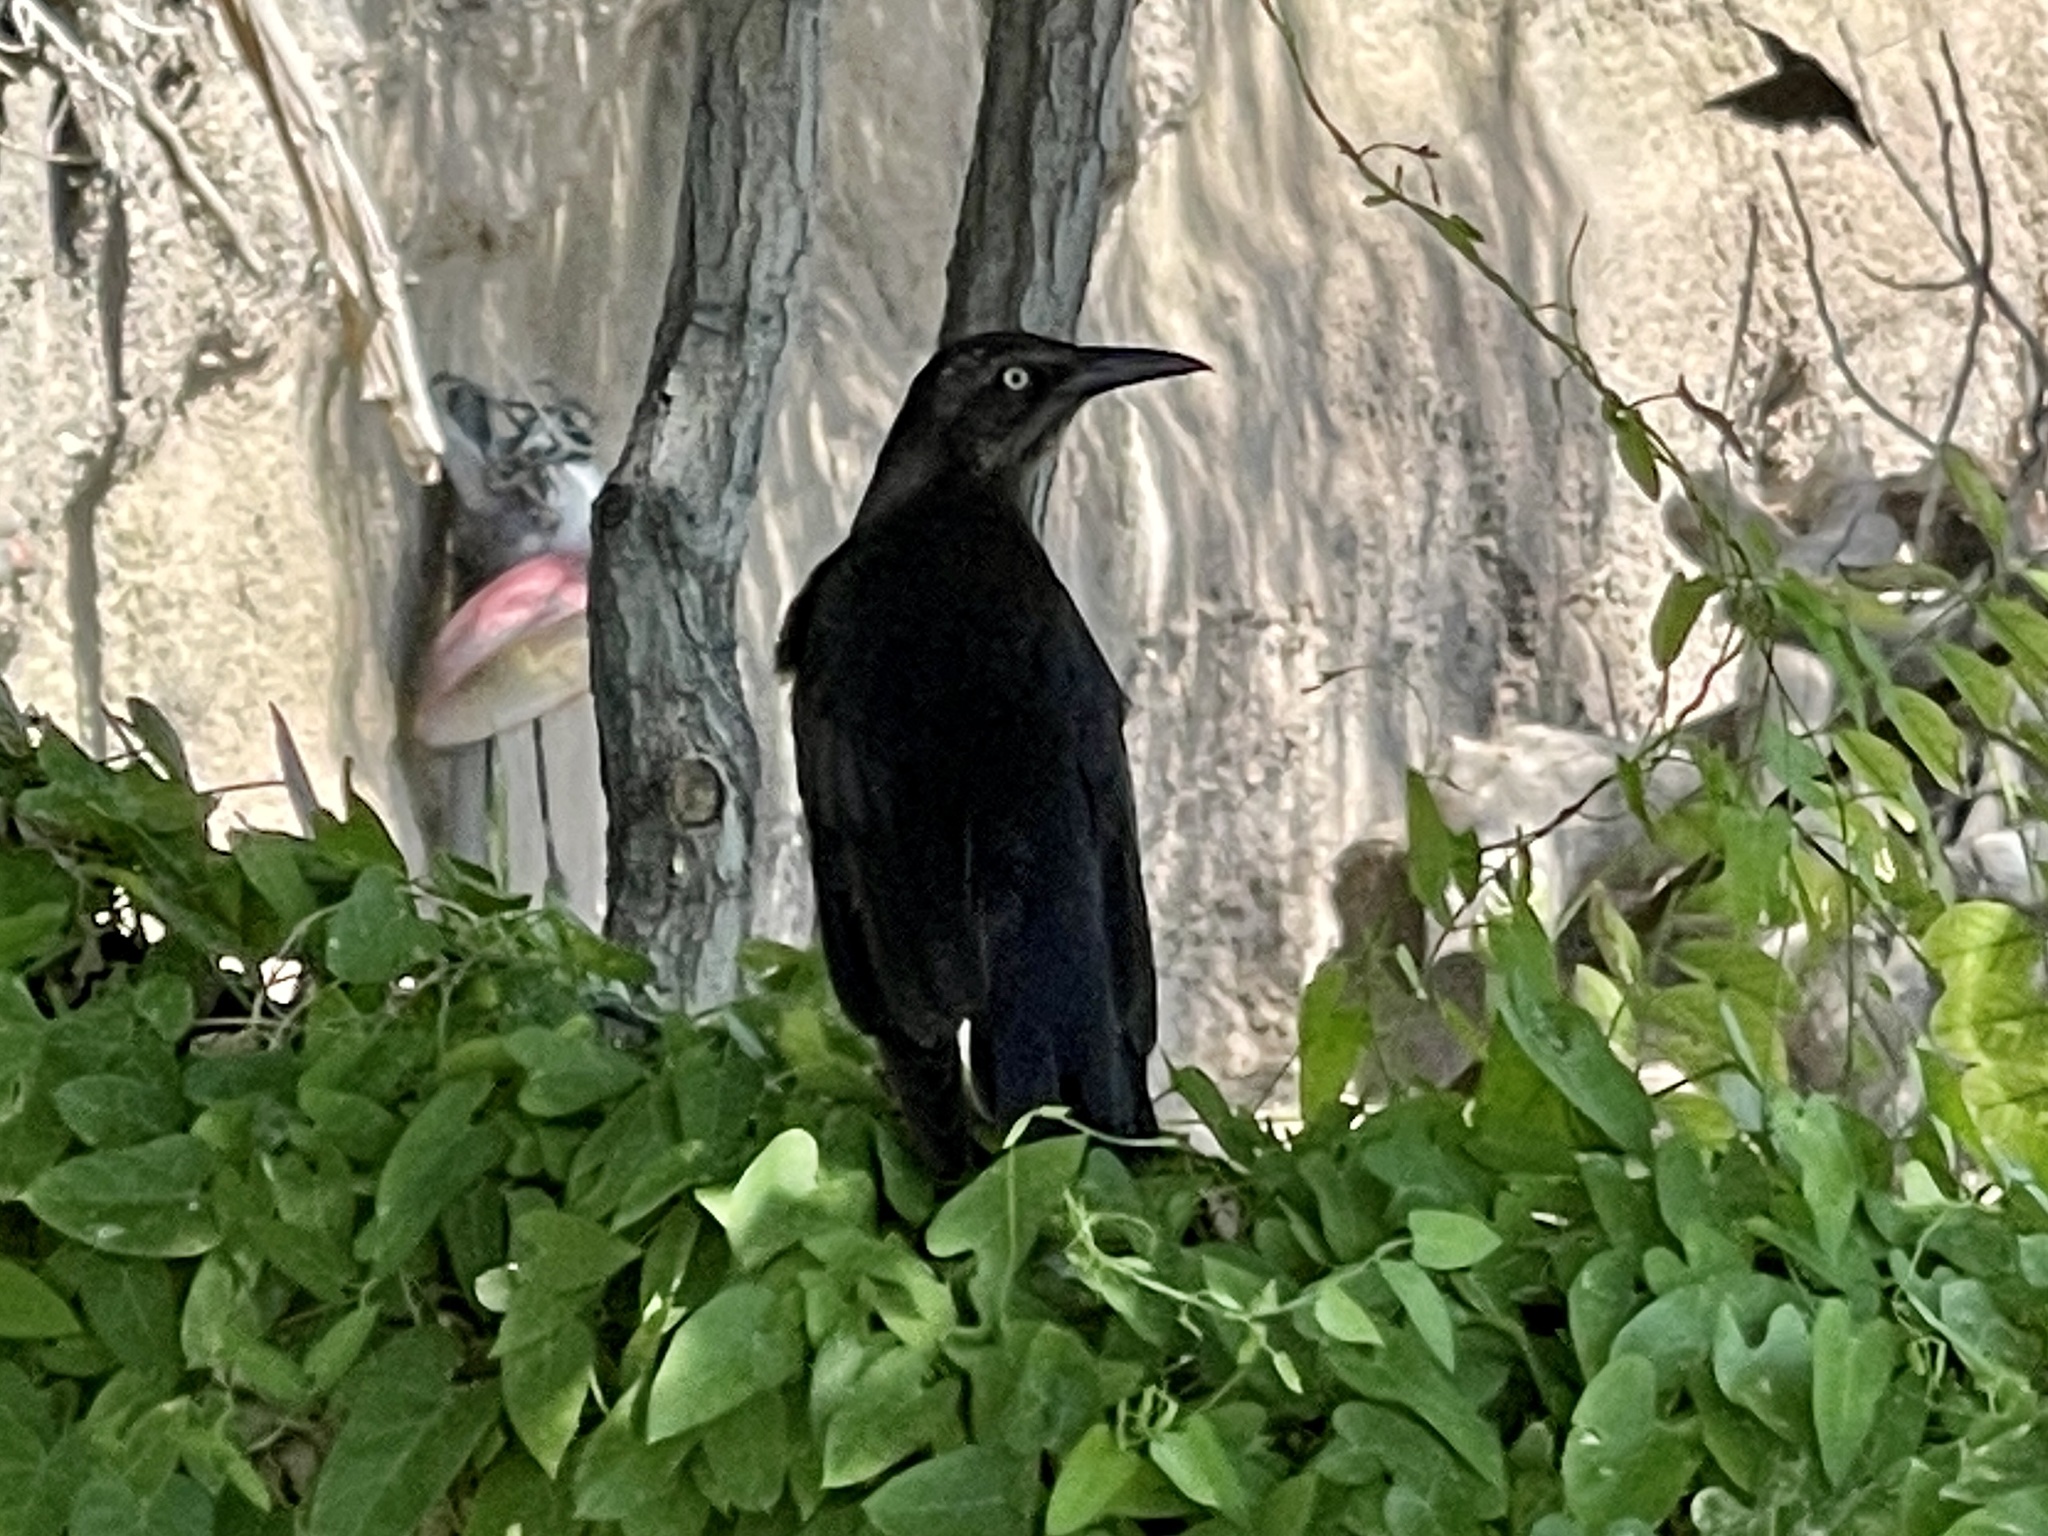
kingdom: Animalia
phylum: Chordata
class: Aves
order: Passeriformes
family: Icteridae
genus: Quiscalus
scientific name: Quiscalus mexicanus
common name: Great-tailed grackle
